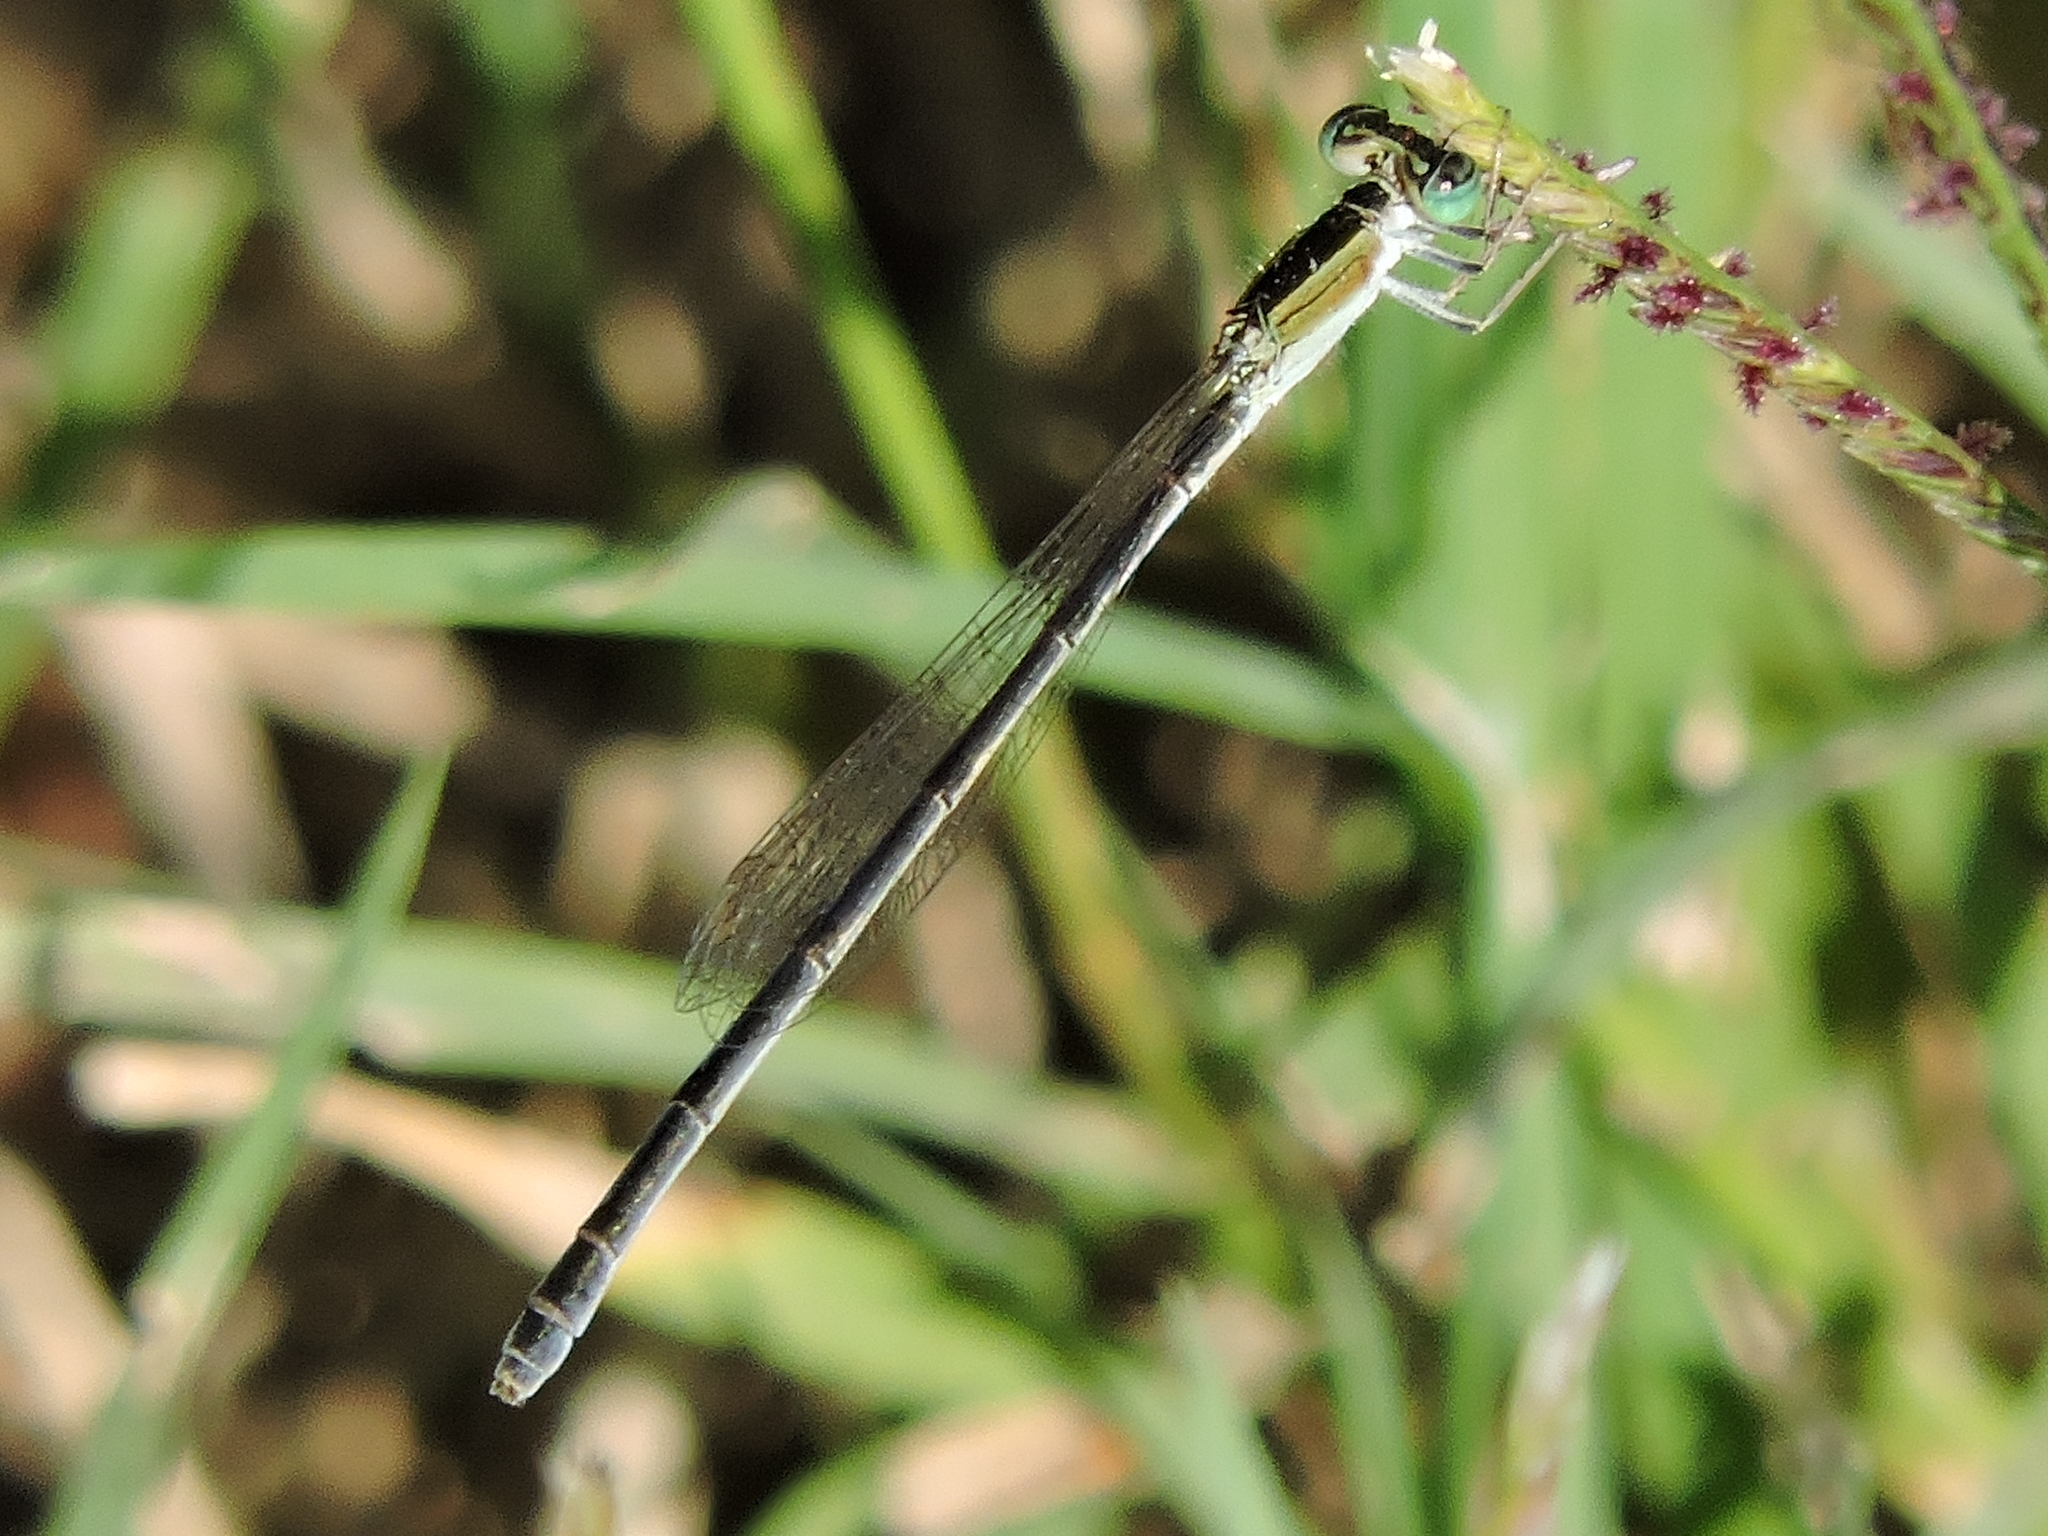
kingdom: Animalia
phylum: Arthropoda
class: Insecta
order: Odonata
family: Coenagrionidae
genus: Ischnura
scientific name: Ischnura hastata
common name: Citrine forktail
